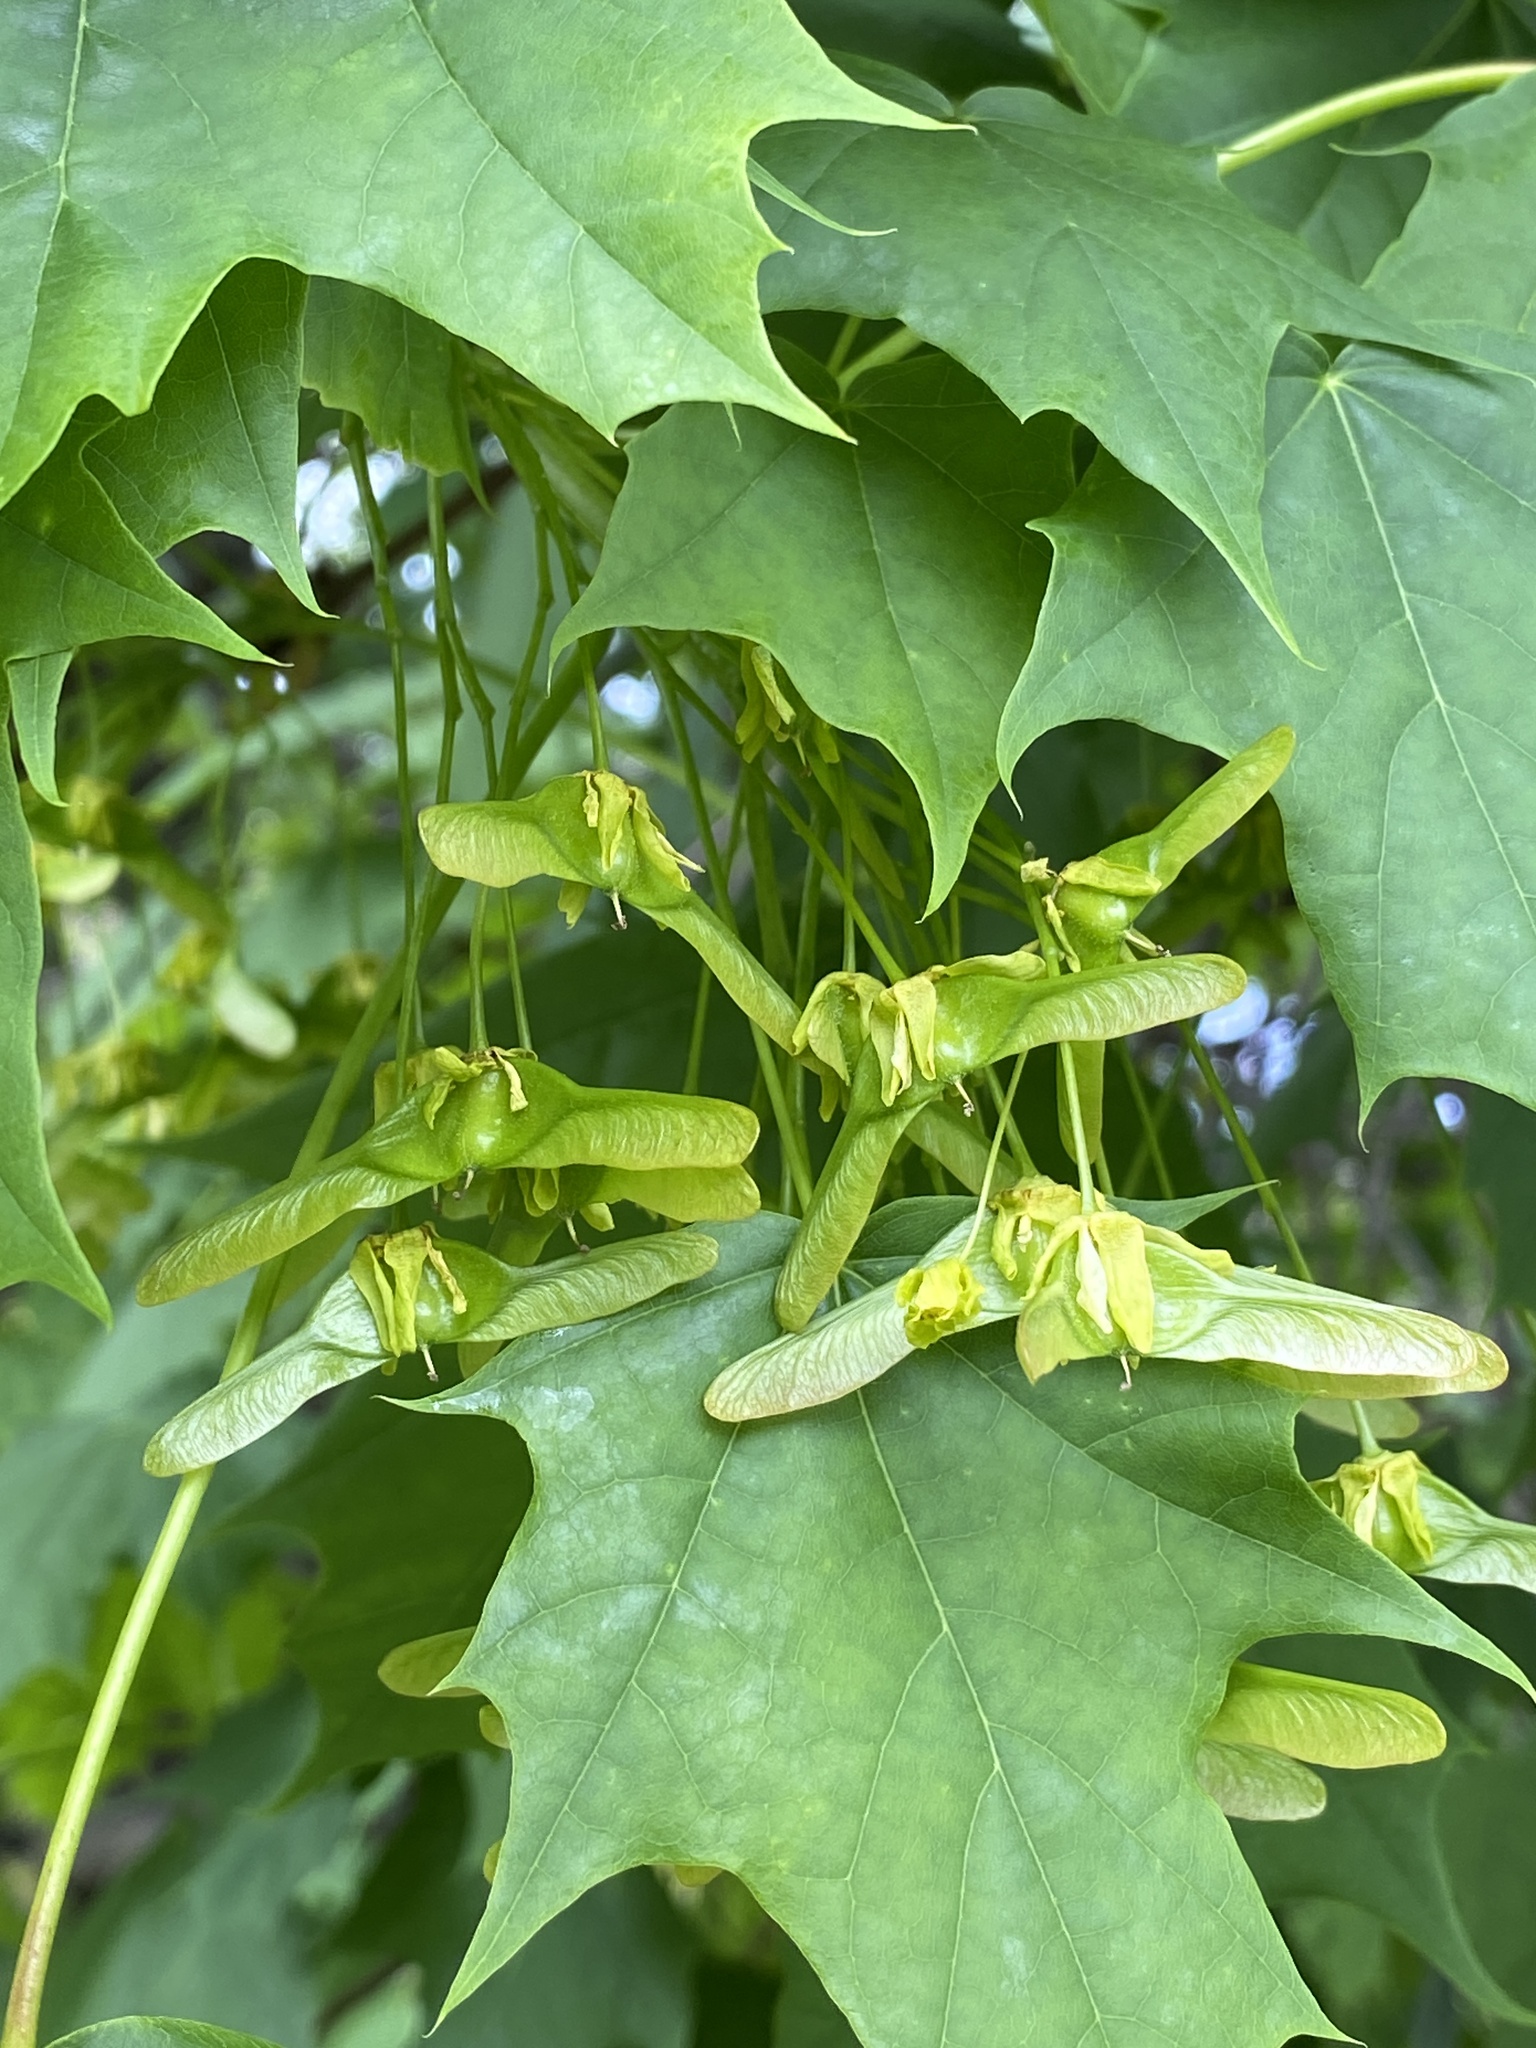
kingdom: Plantae
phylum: Tracheophyta
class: Magnoliopsida
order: Sapindales
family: Sapindaceae
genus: Acer
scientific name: Acer platanoides
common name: Norway maple
